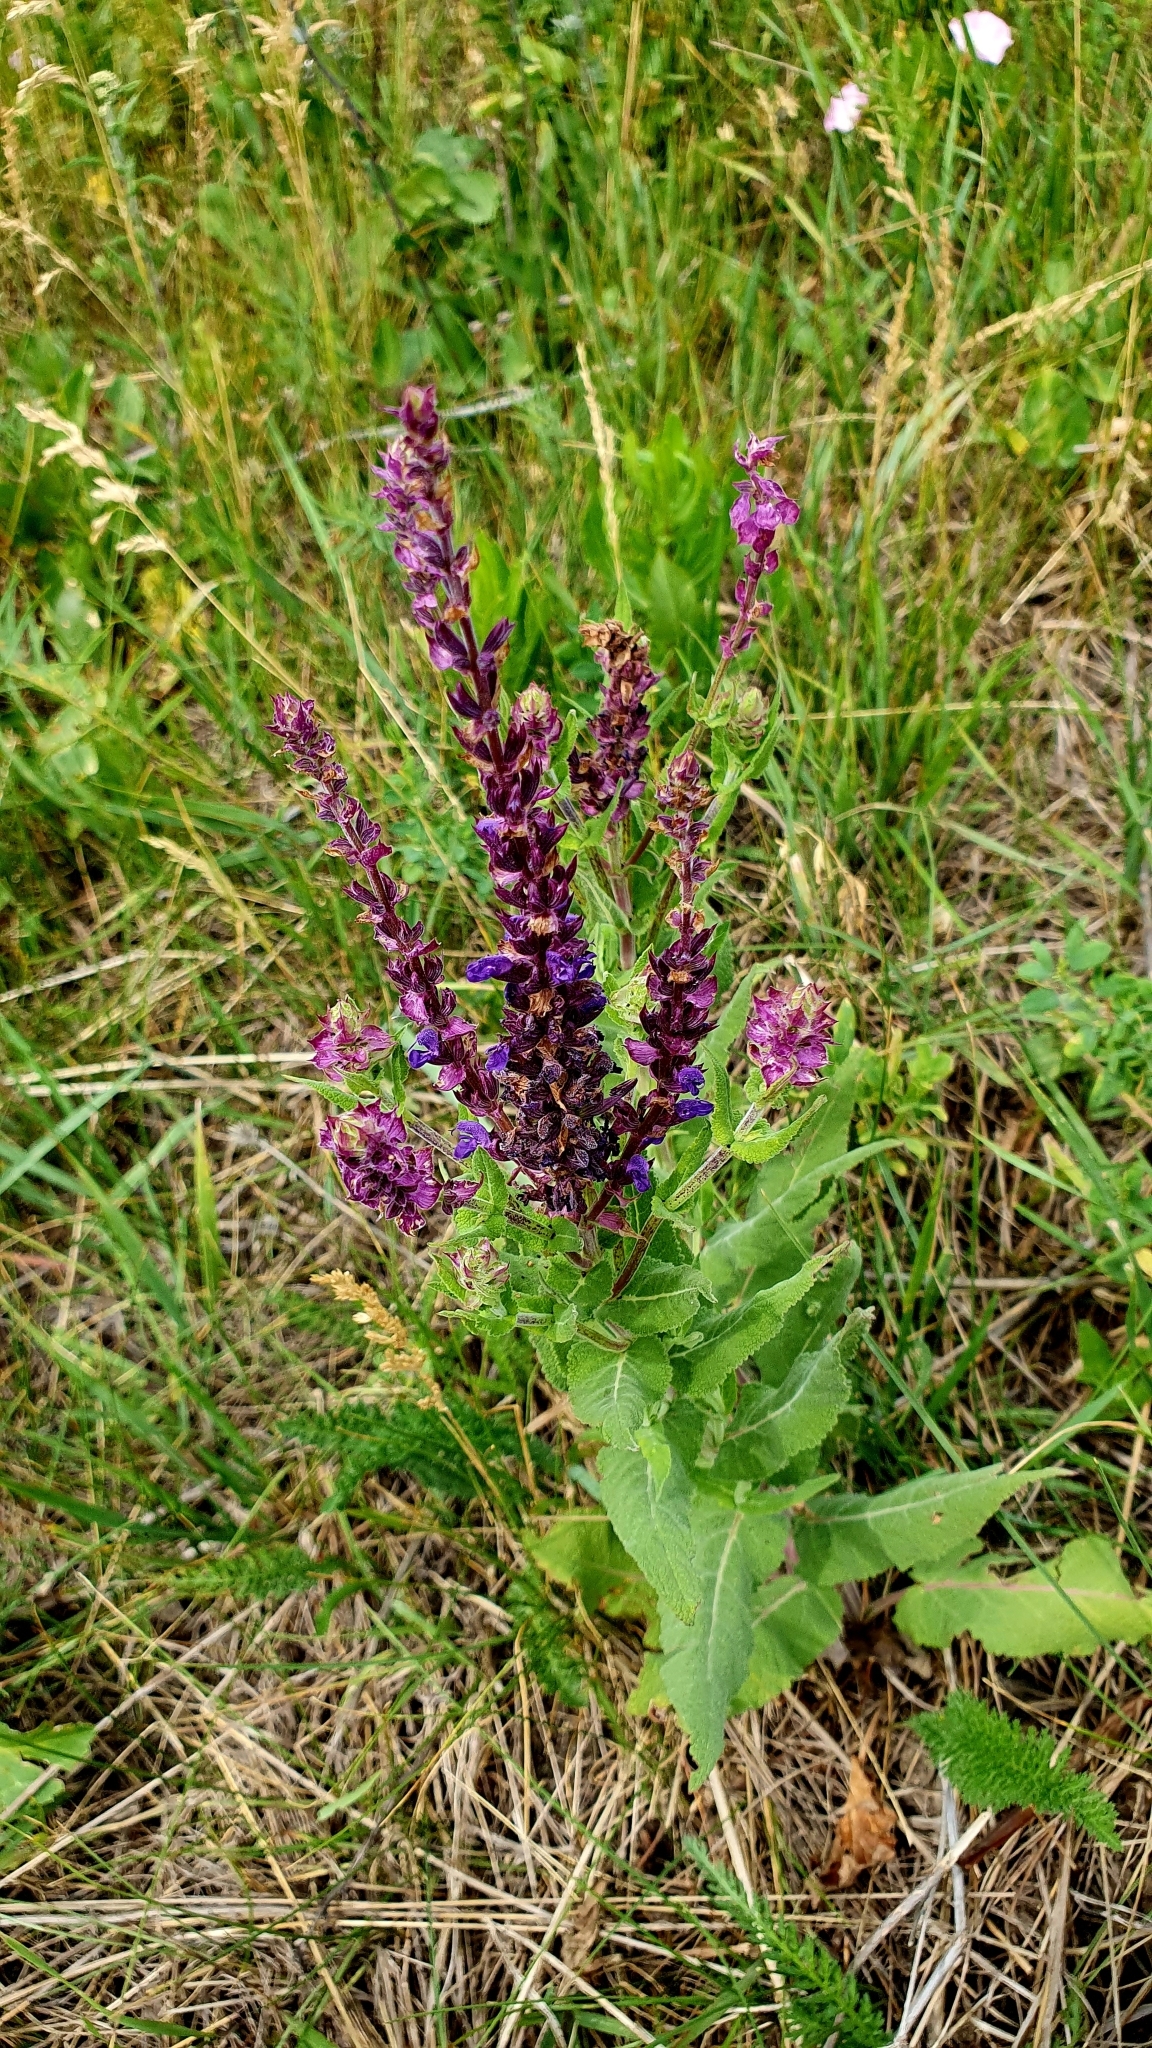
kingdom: Plantae
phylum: Tracheophyta
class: Magnoliopsida
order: Lamiales
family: Lamiaceae
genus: Salvia
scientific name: Salvia nemorosa
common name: Balkan clary
